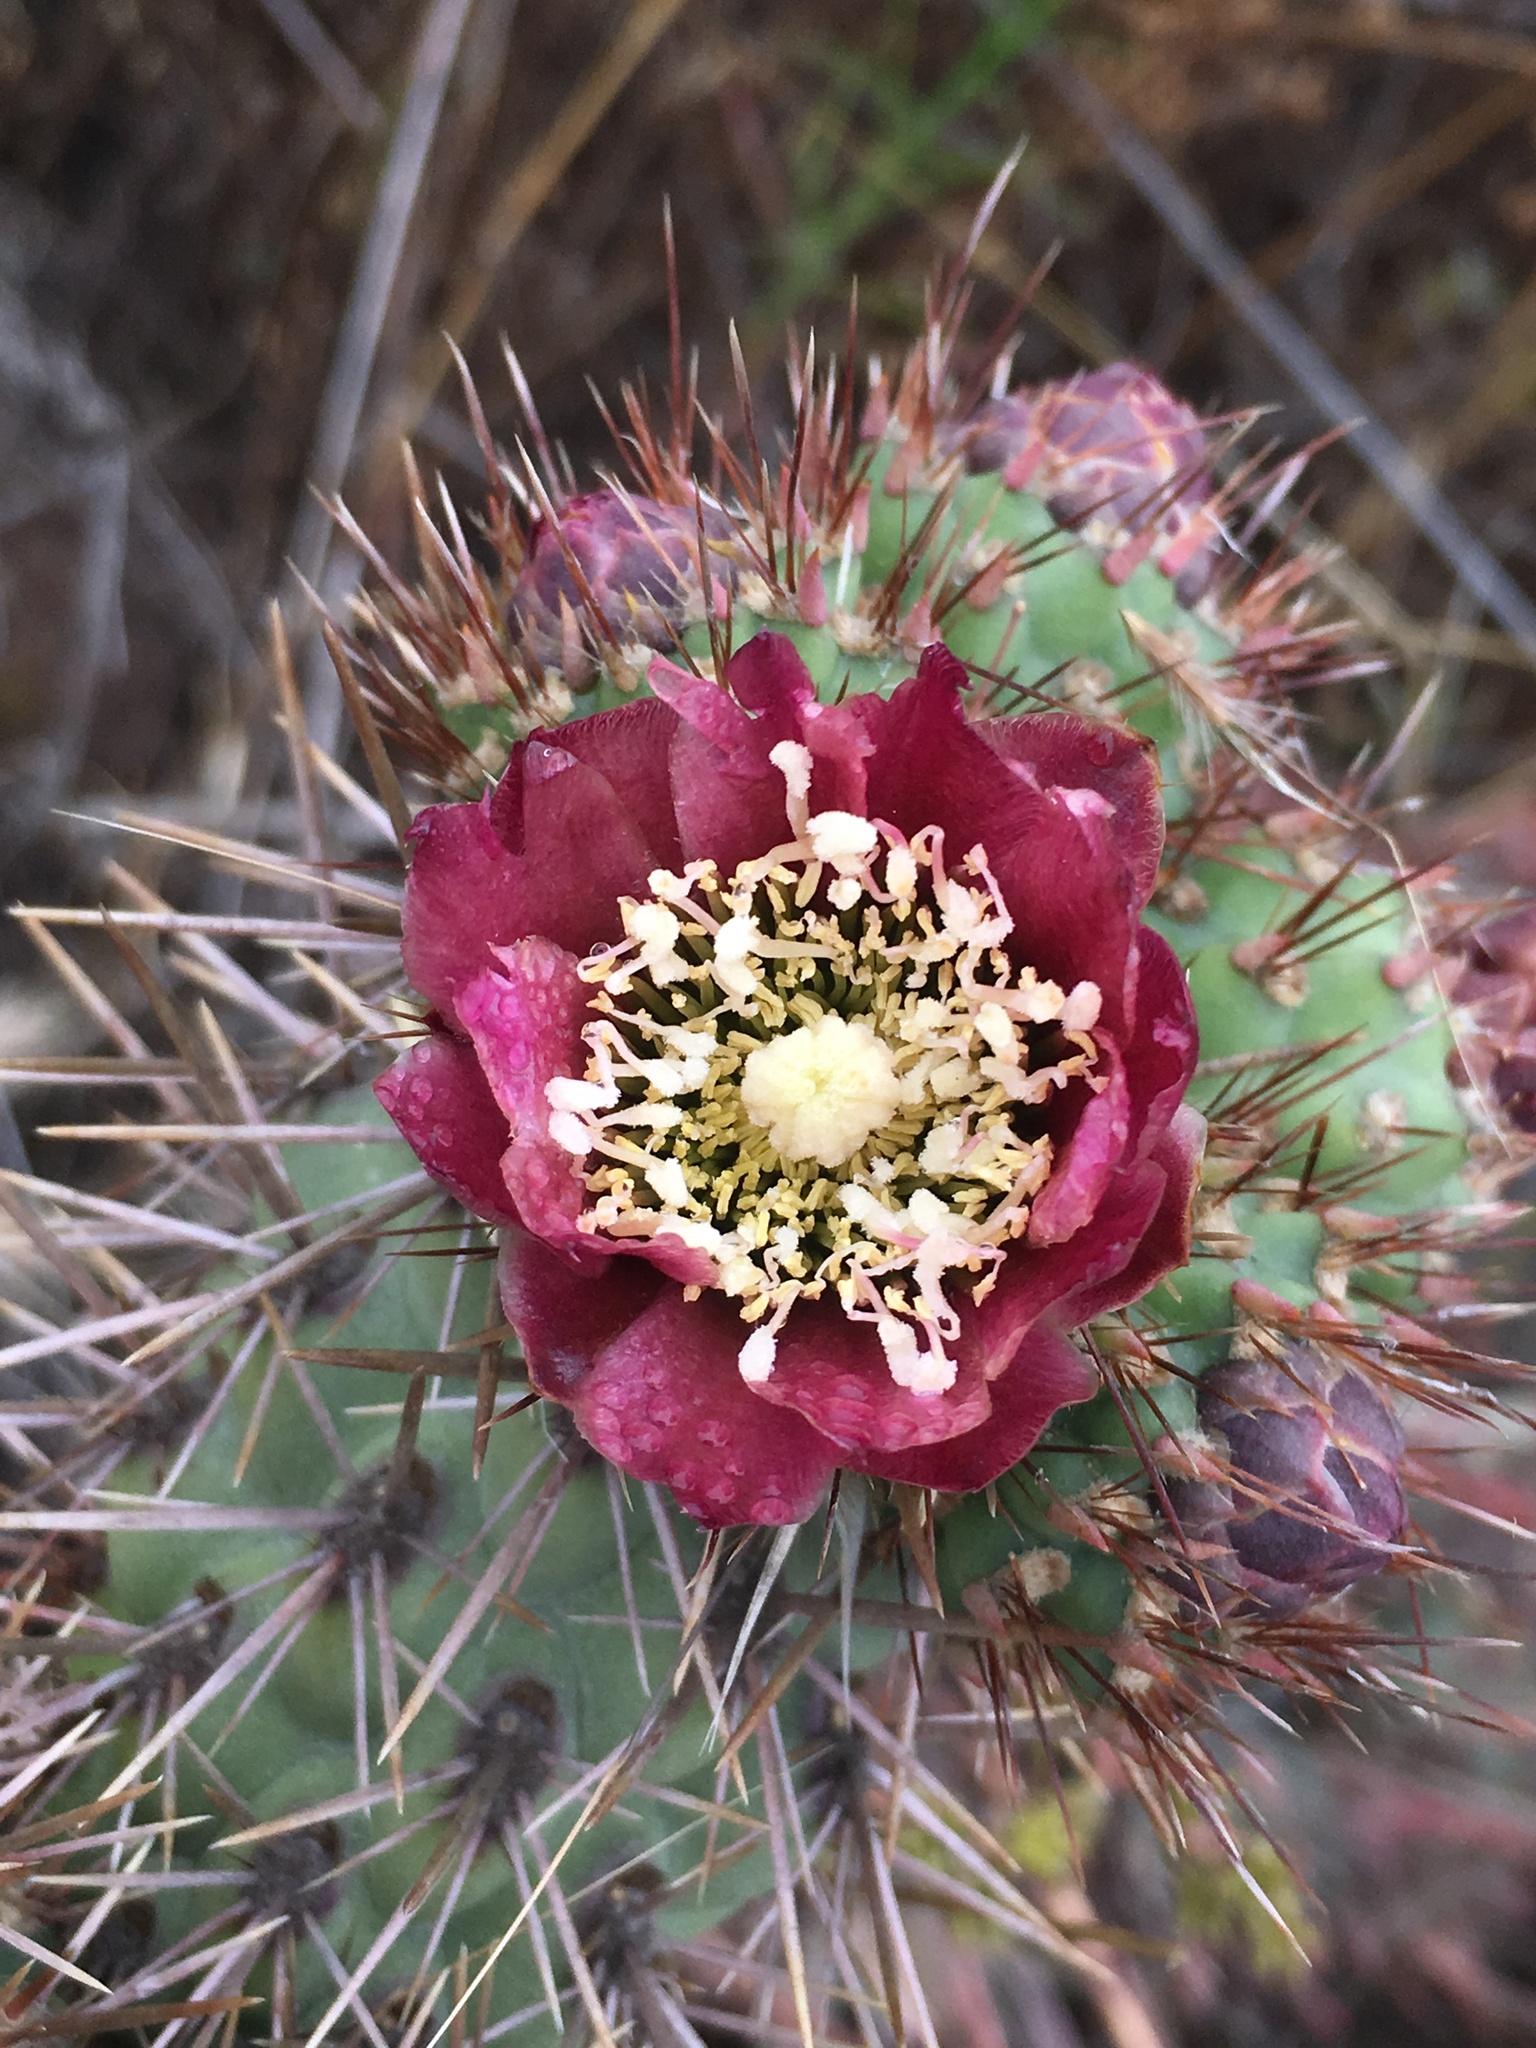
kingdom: Plantae
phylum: Tracheophyta
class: Magnoliopsida
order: Caryophyllales
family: Cactaceae
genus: Cylindropuntia
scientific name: Cylindropuntia prolifera
